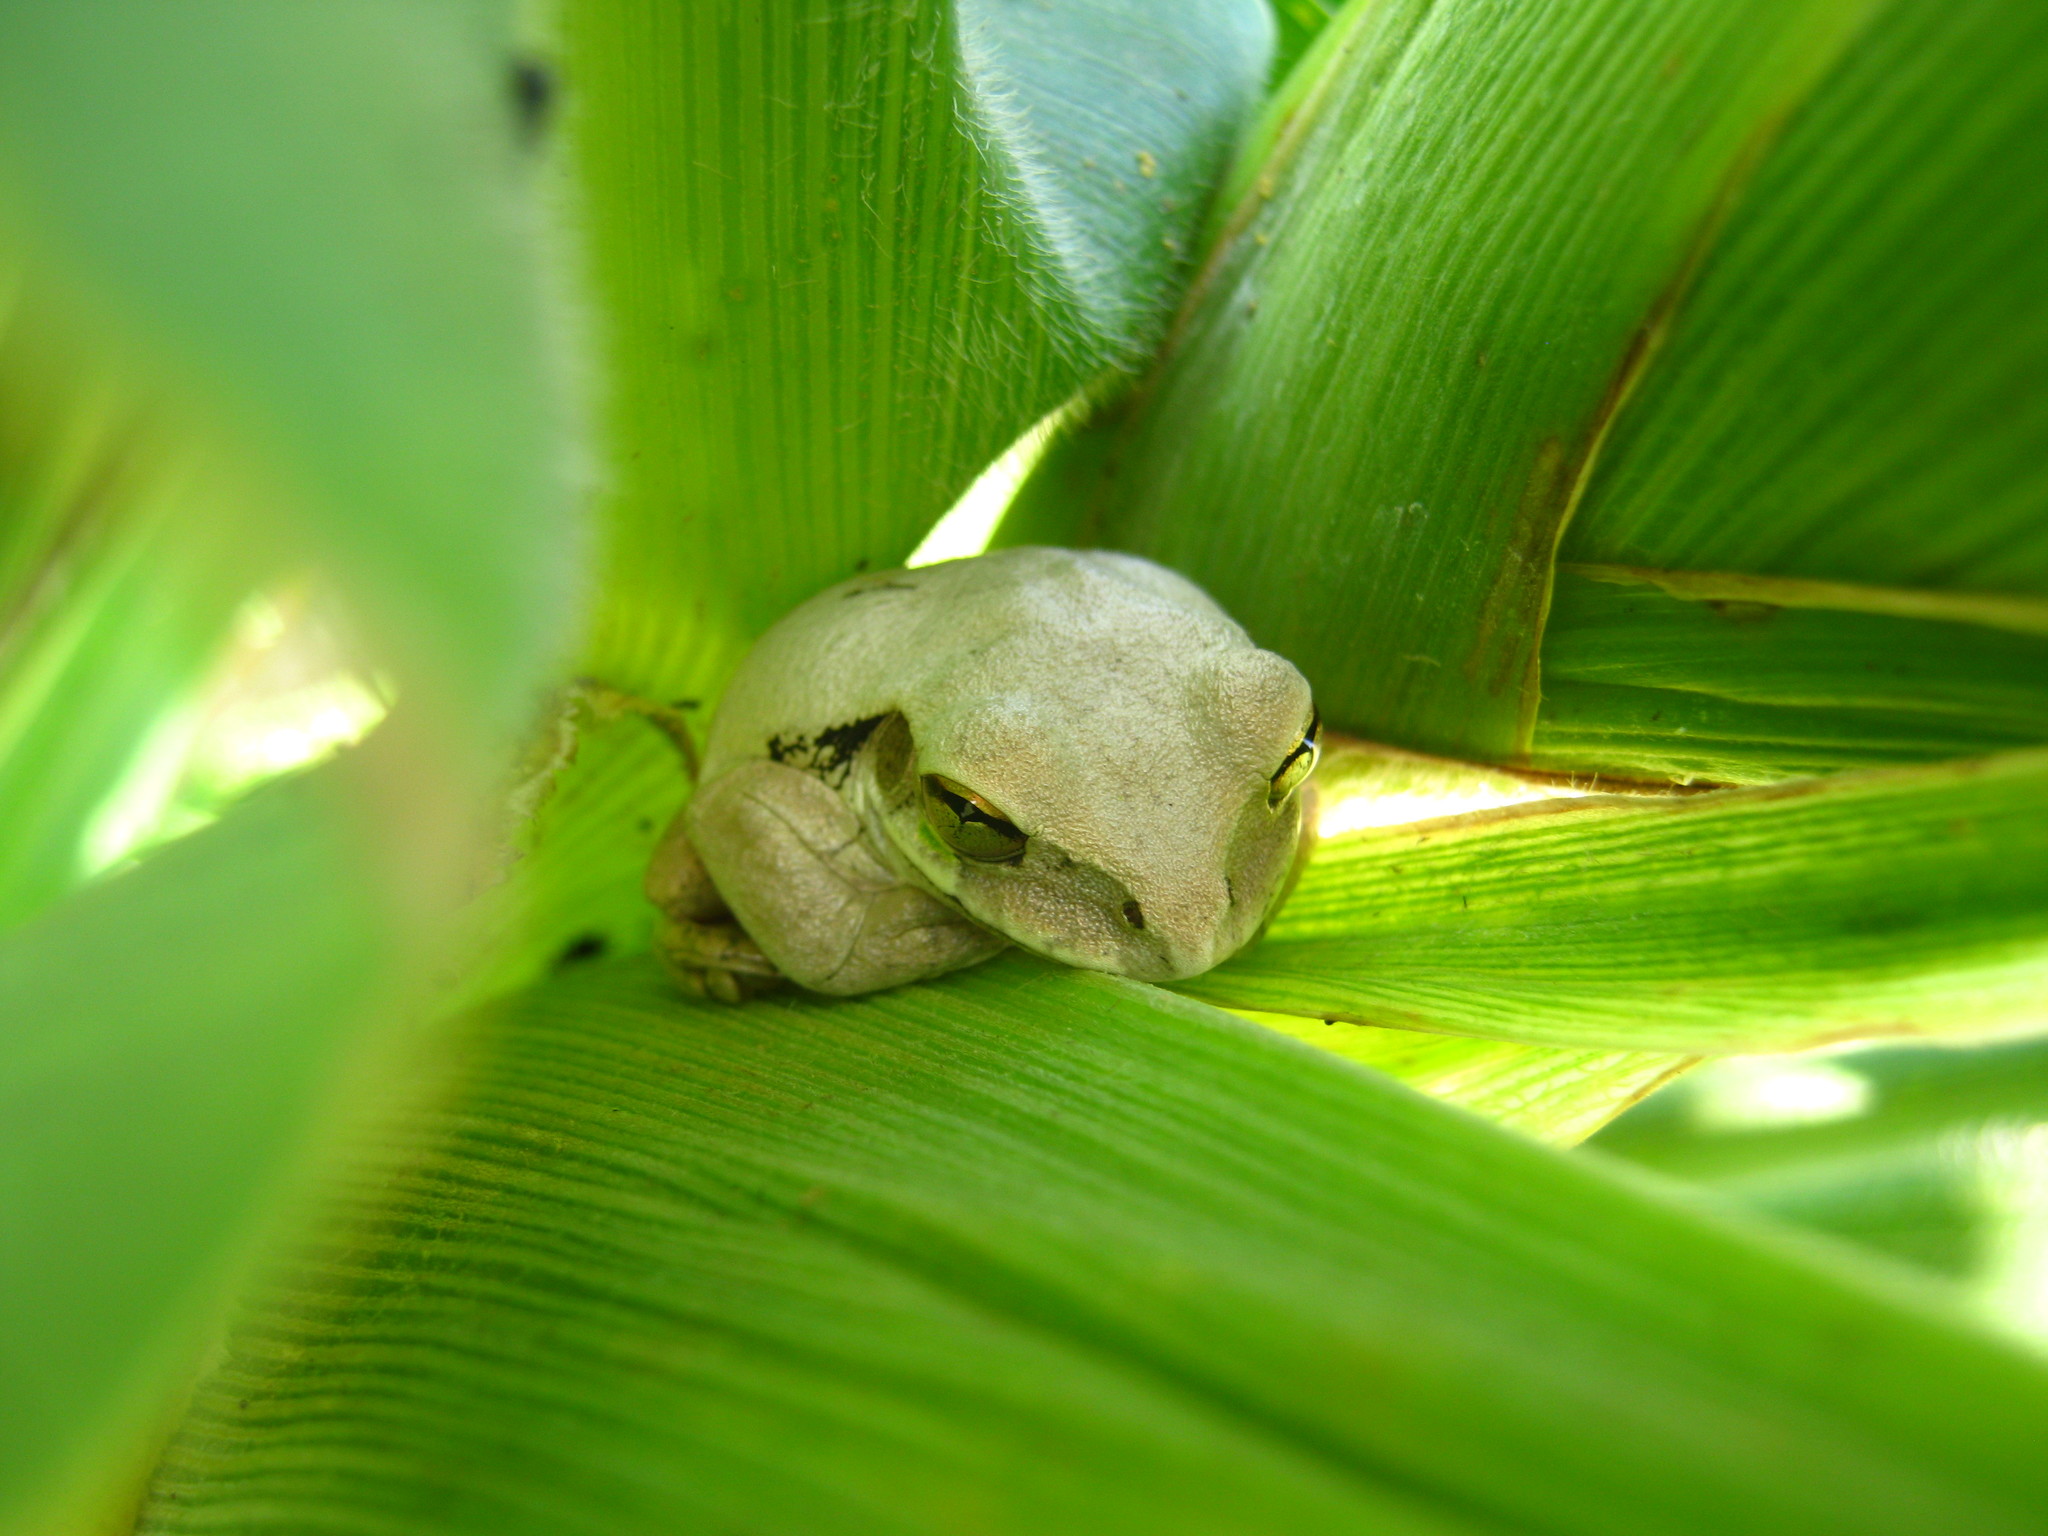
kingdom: Animalia
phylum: Chordata
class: Amphibia
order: Anura
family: Hylidae
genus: Smilisca
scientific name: Smilisca baudinii
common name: Mexican smilisca
